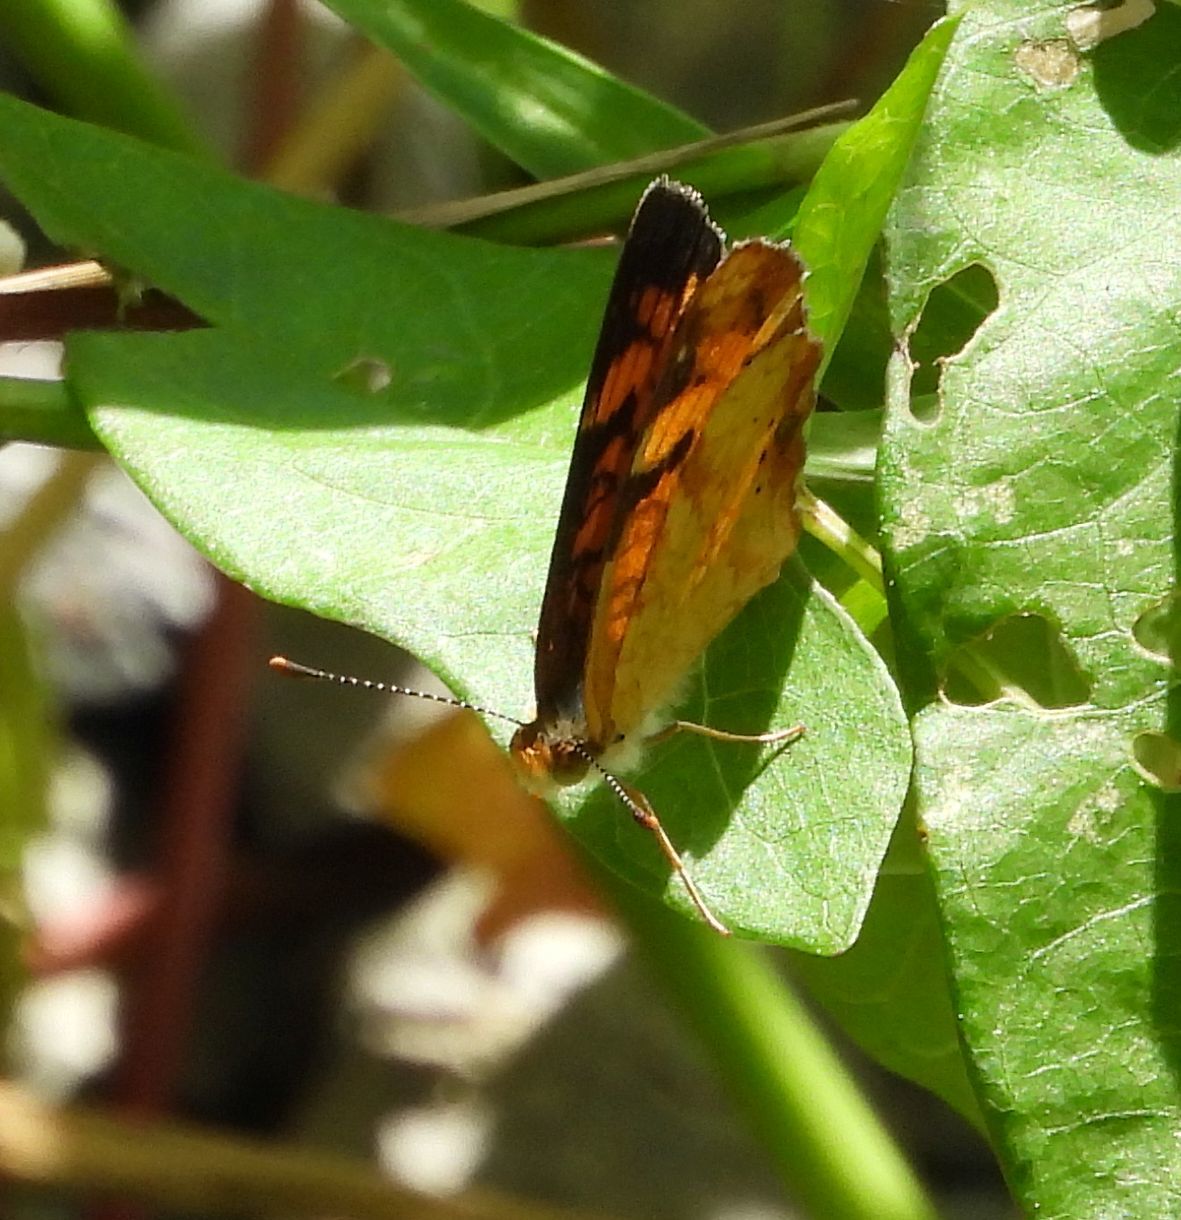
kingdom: Animalia
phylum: Arthropoda
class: Insecta
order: Lepidoptera
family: Nymphalidae
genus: Phyciodes
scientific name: Phyciodes tharos
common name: Pearl crescent
